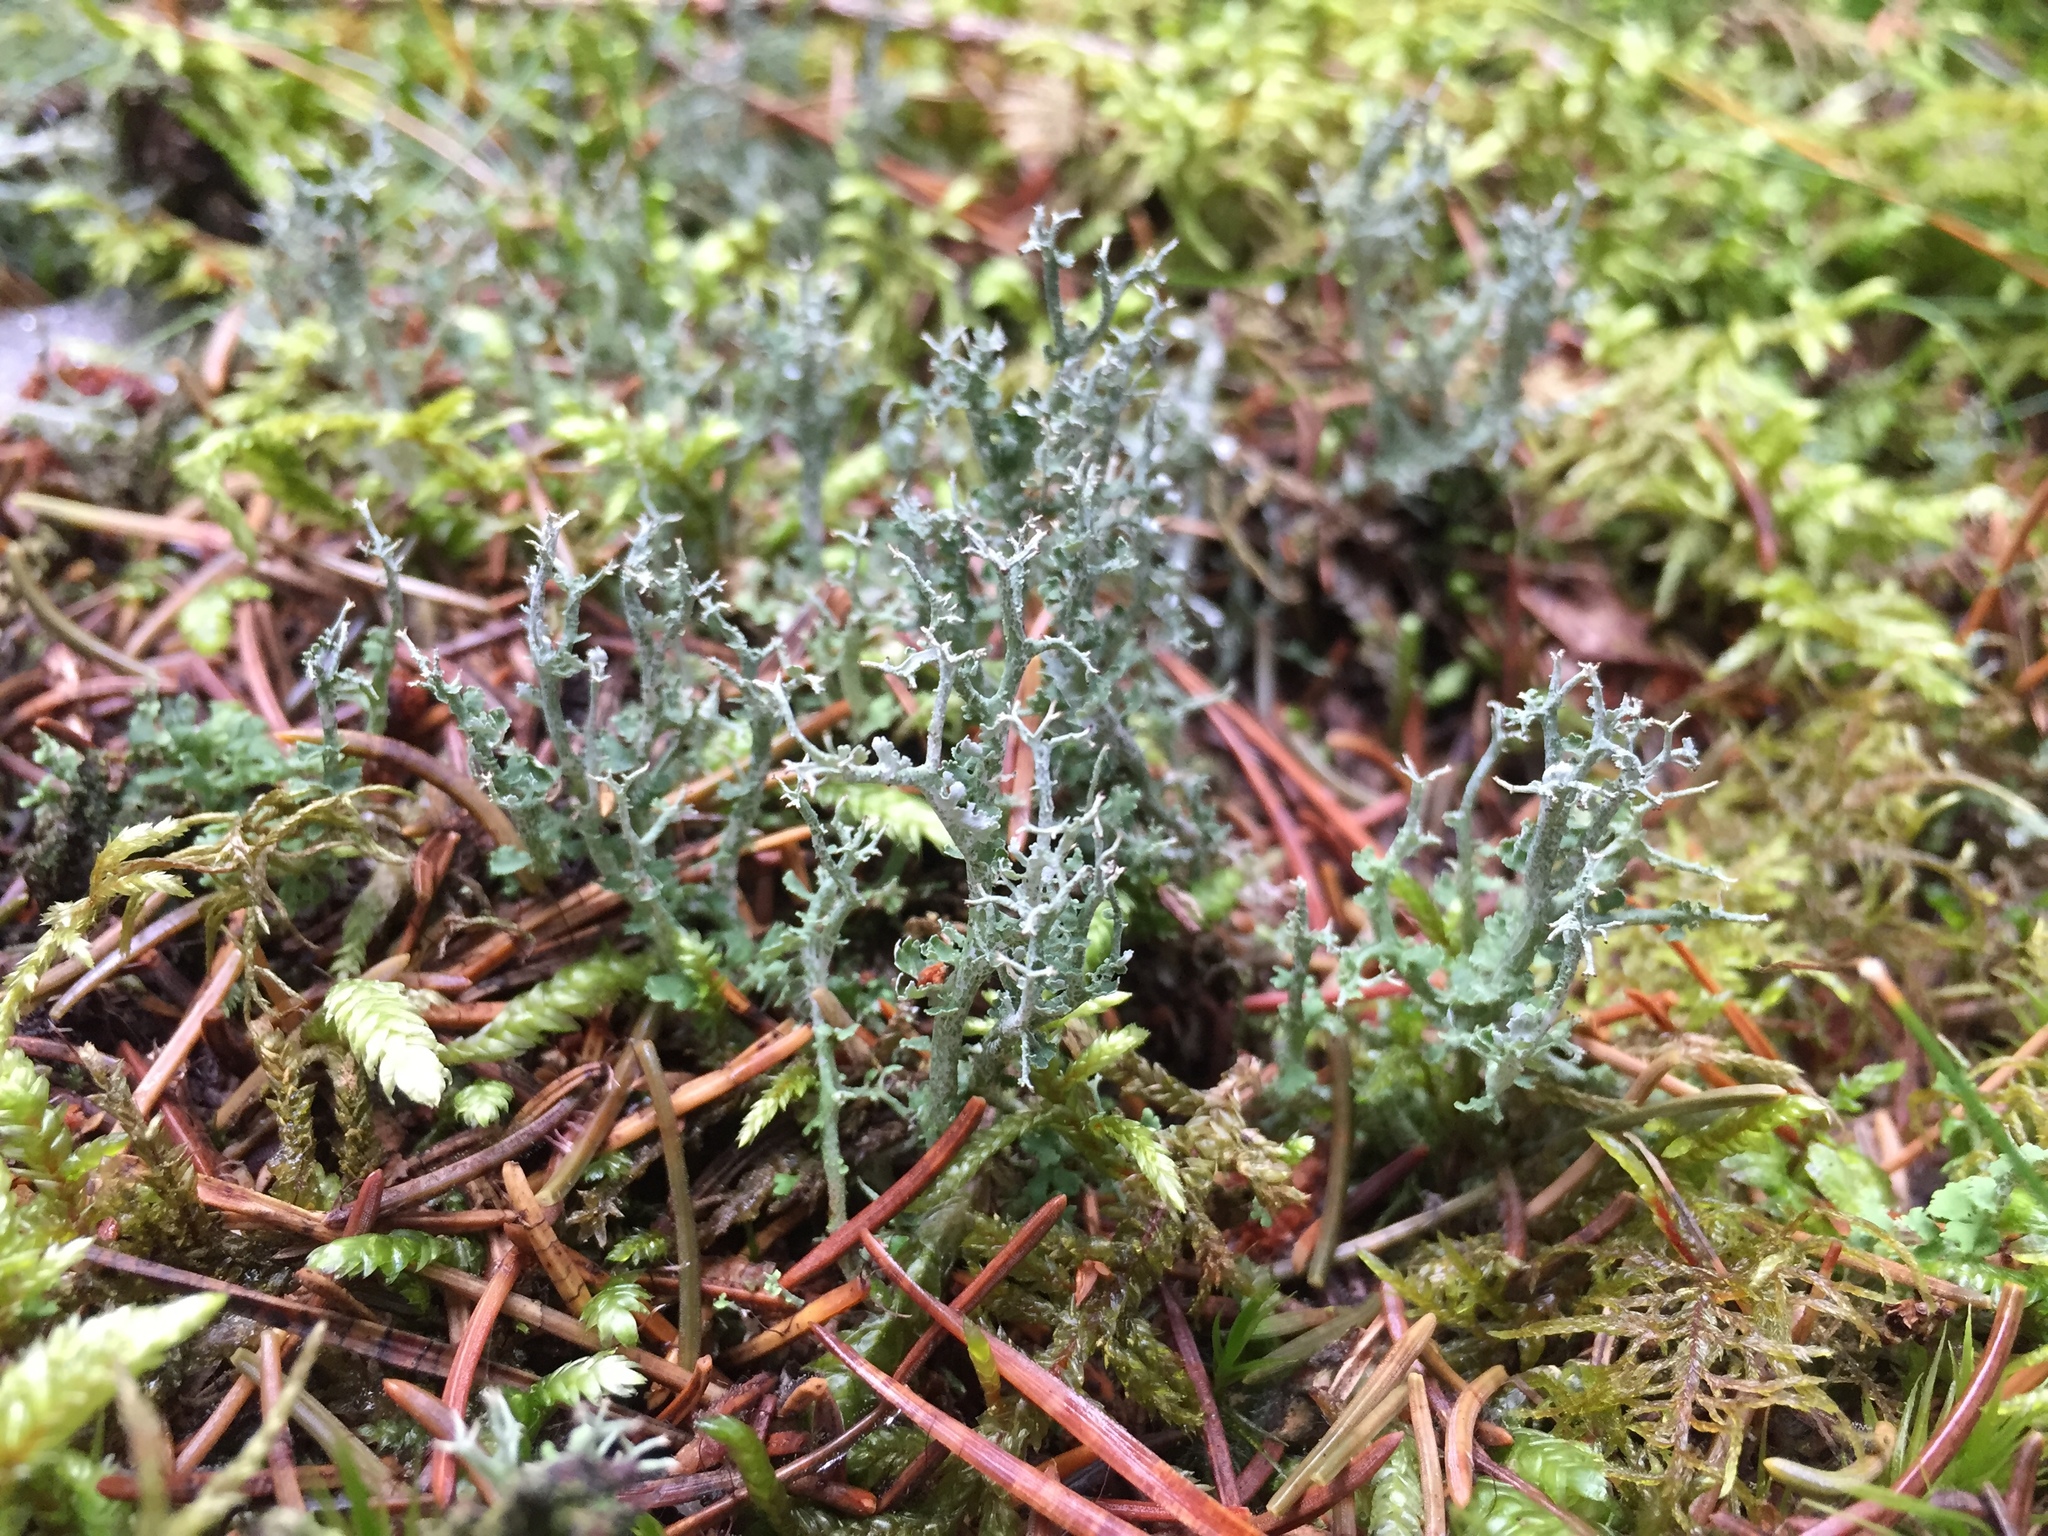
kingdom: Fungi
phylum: Ascomycota
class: Lecanoromycetes
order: Lecanorales
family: Cladoniaceae
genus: Cladonia
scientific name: Cladonia furcata
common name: Many-forked cladonia
